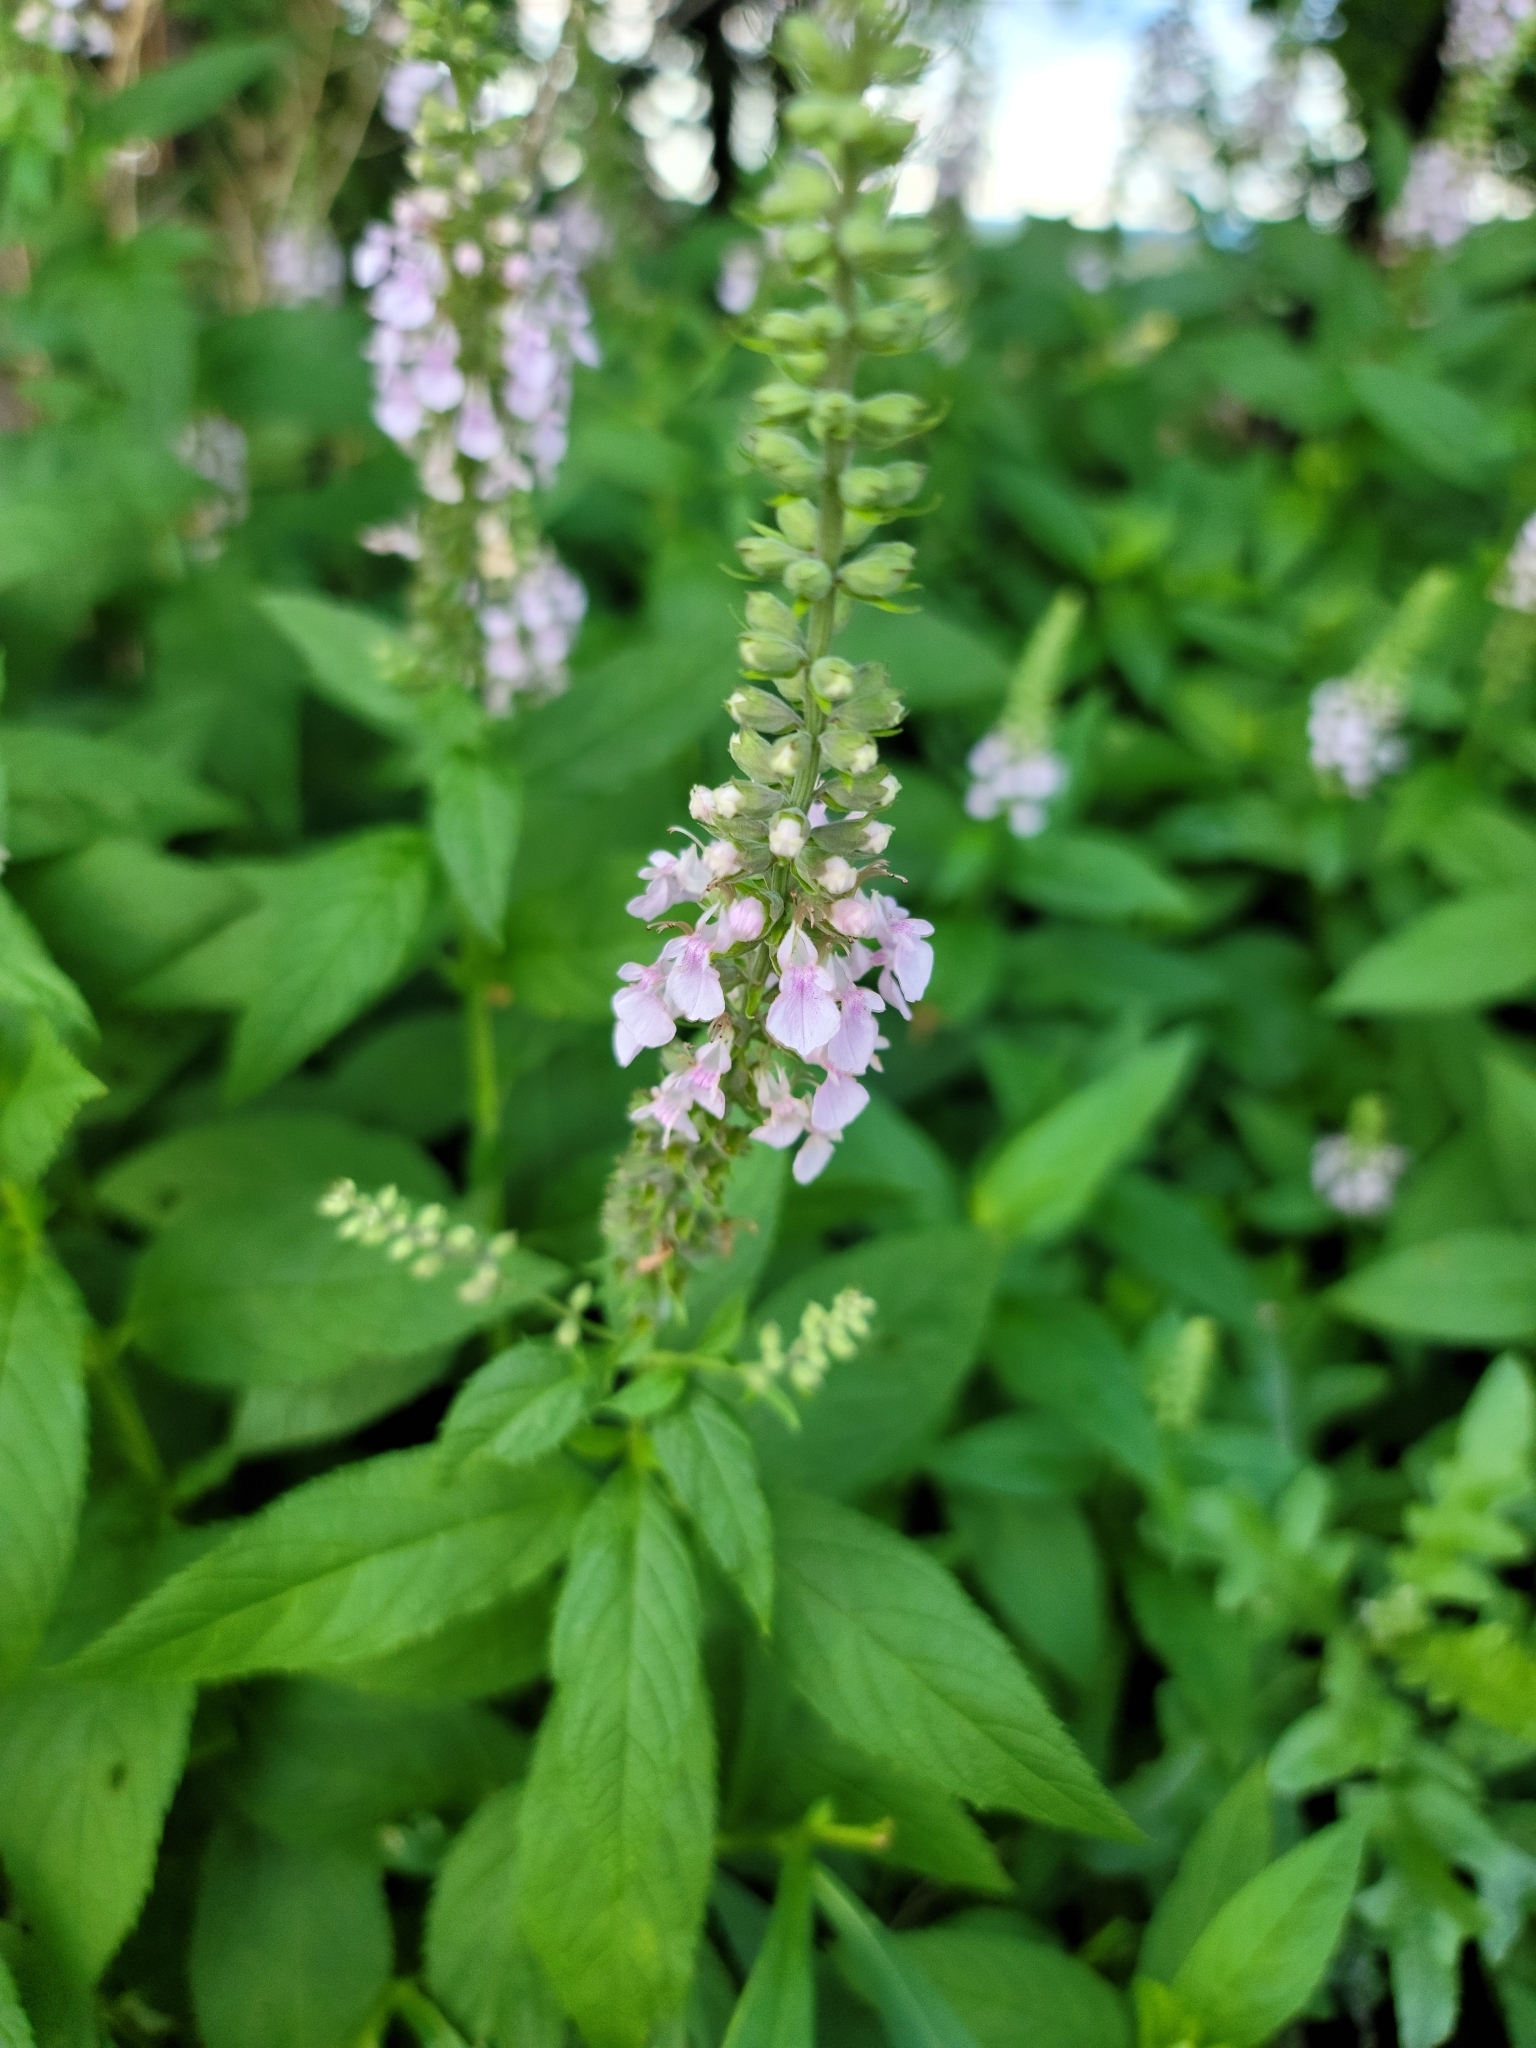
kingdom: Plantae
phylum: Tracheophyta
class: Magnoliopsida
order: Lamiales
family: Lamiaceae
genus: Teucrium
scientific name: Teucrium canadense
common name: American germander
